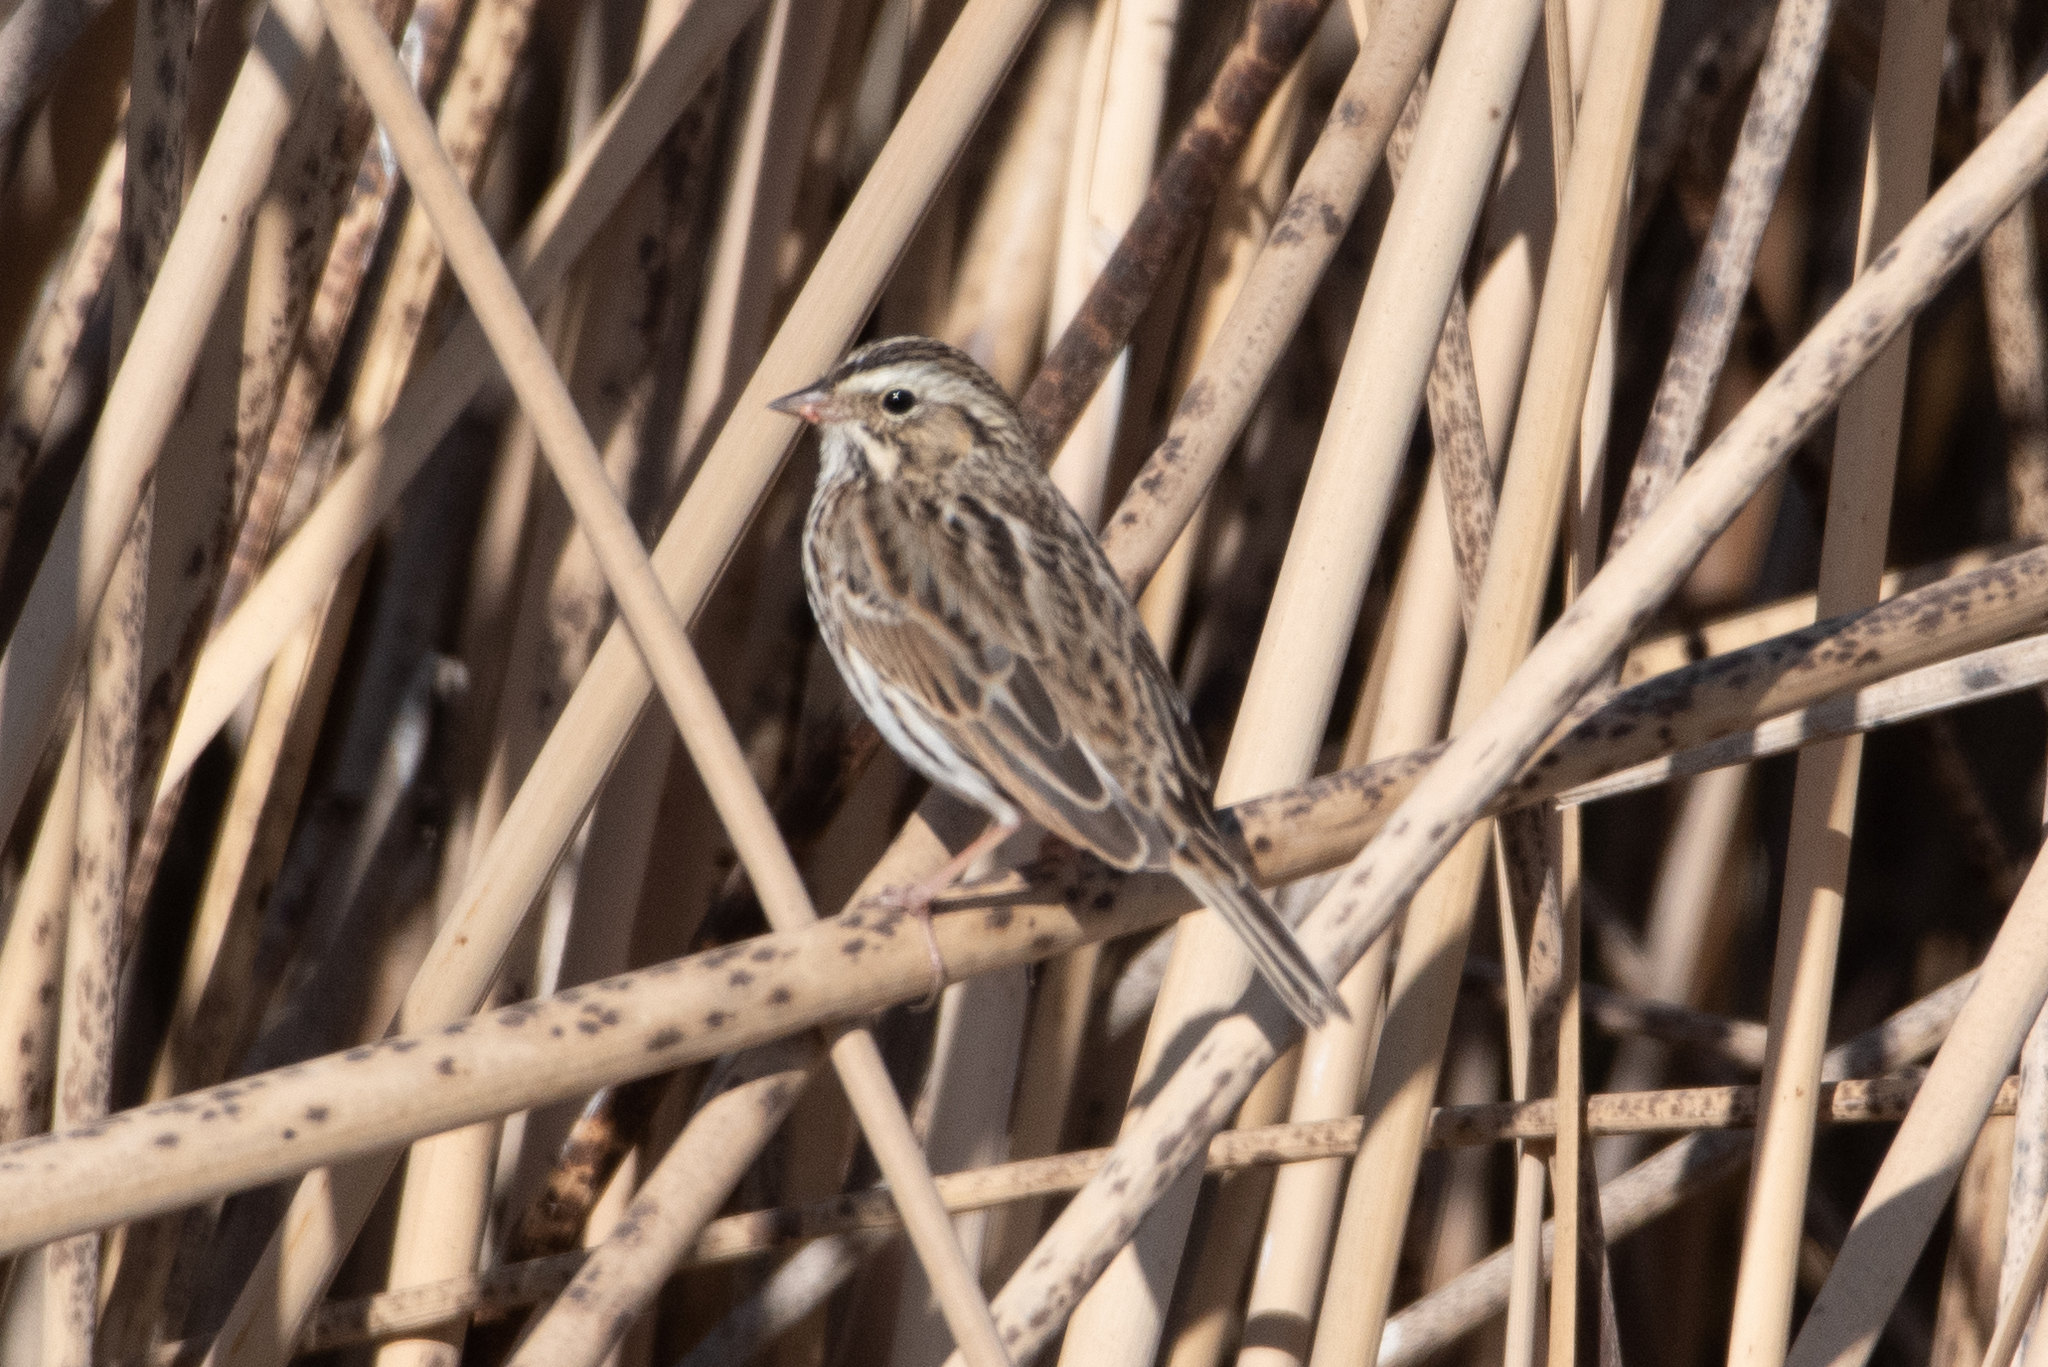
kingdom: Animalia
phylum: Chordata
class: Aves
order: Passeriformes
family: Passerellidae
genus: Passerculus
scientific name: Passerculus sandwichensis
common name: Savannah sparrow
